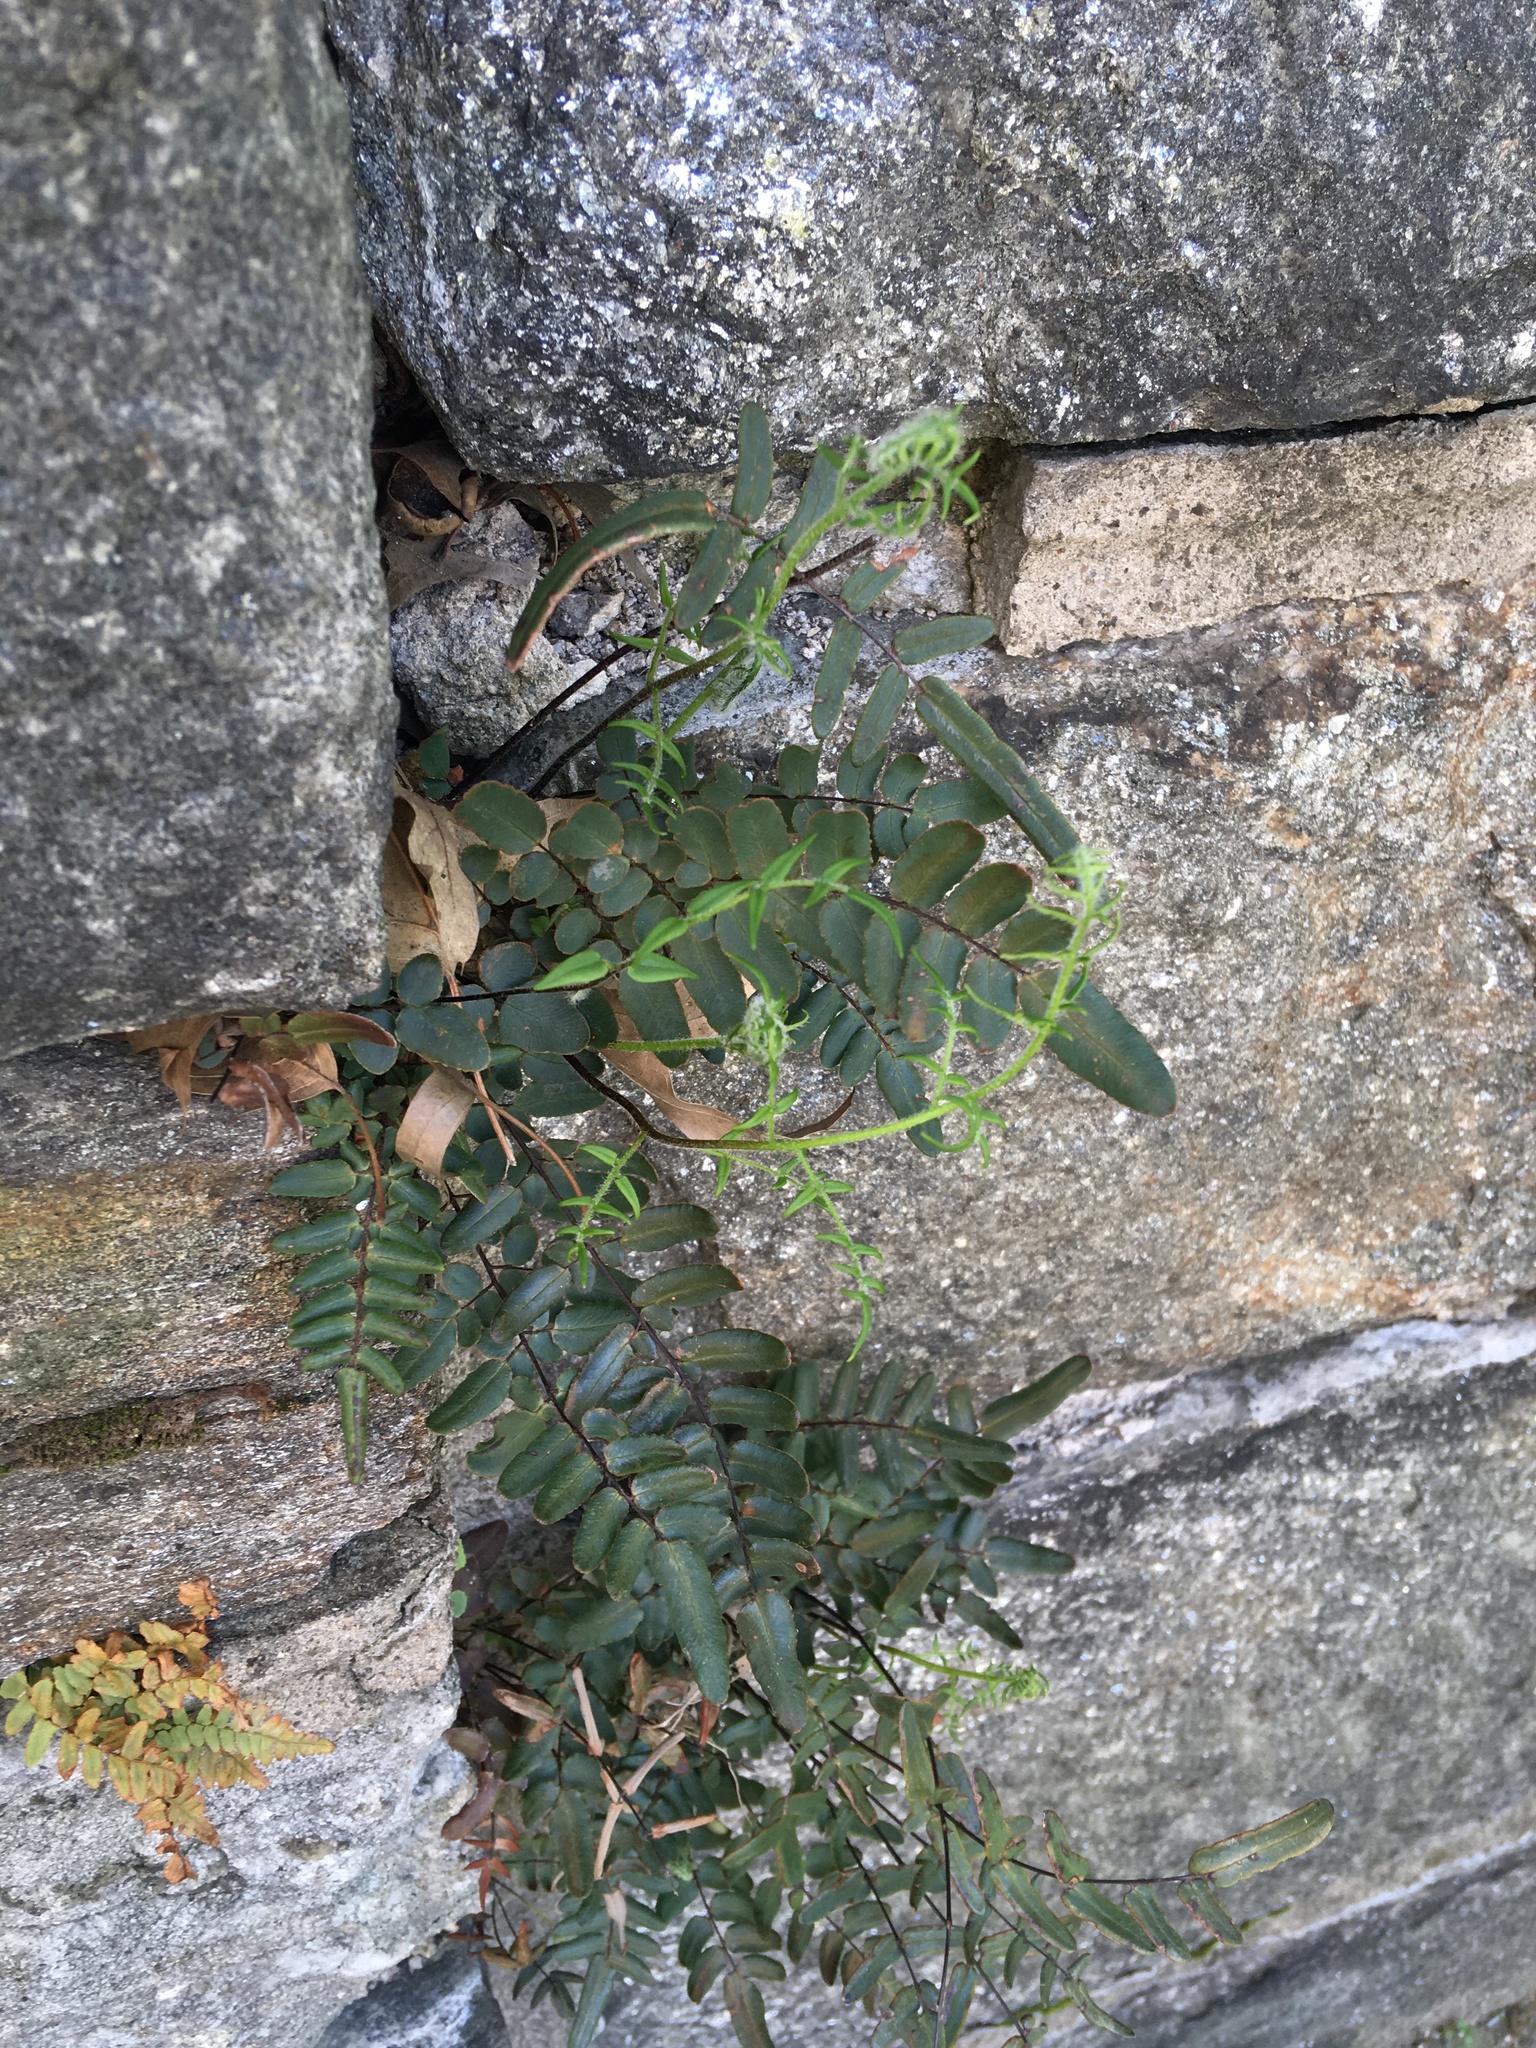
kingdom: Plantae
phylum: Tracheophyta
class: Polypodiopsida
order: Polypodiales
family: Pteridaceae
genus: Pellaea
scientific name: Pellaea atropurpurea
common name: Hairy cliffbrake
